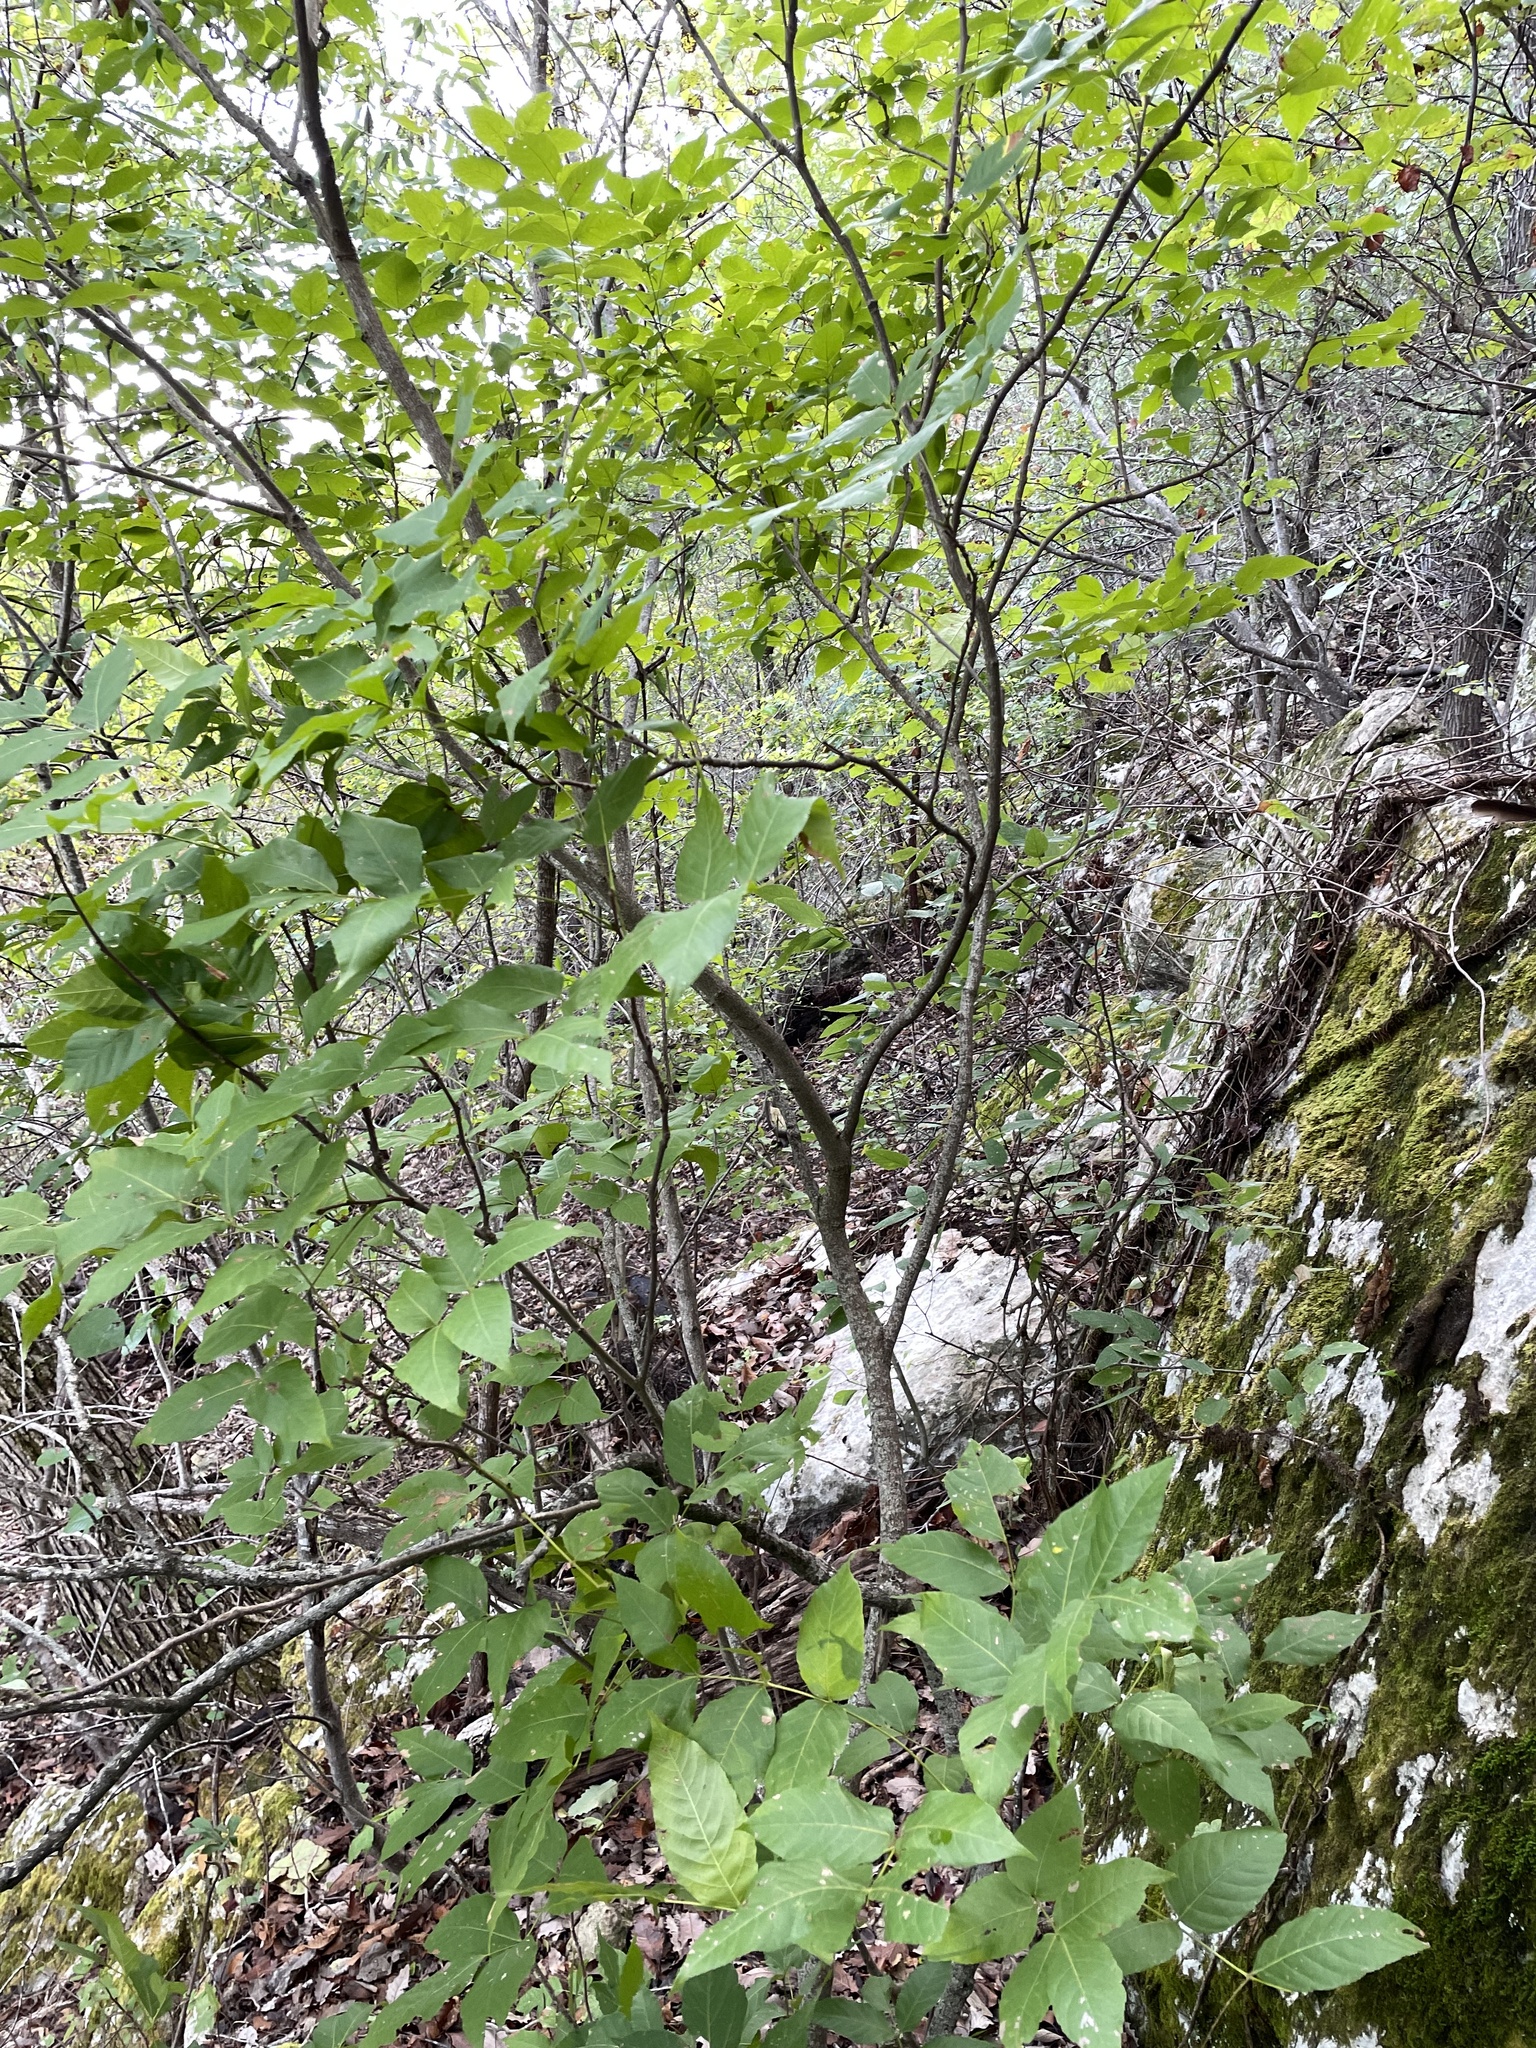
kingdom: Plantae
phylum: Tracheophyta
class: Magnoliopsida
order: Sapindales
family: Sapindaceae
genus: Ungnadia
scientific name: Ungnadia speciosa
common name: Texas-buckeye
